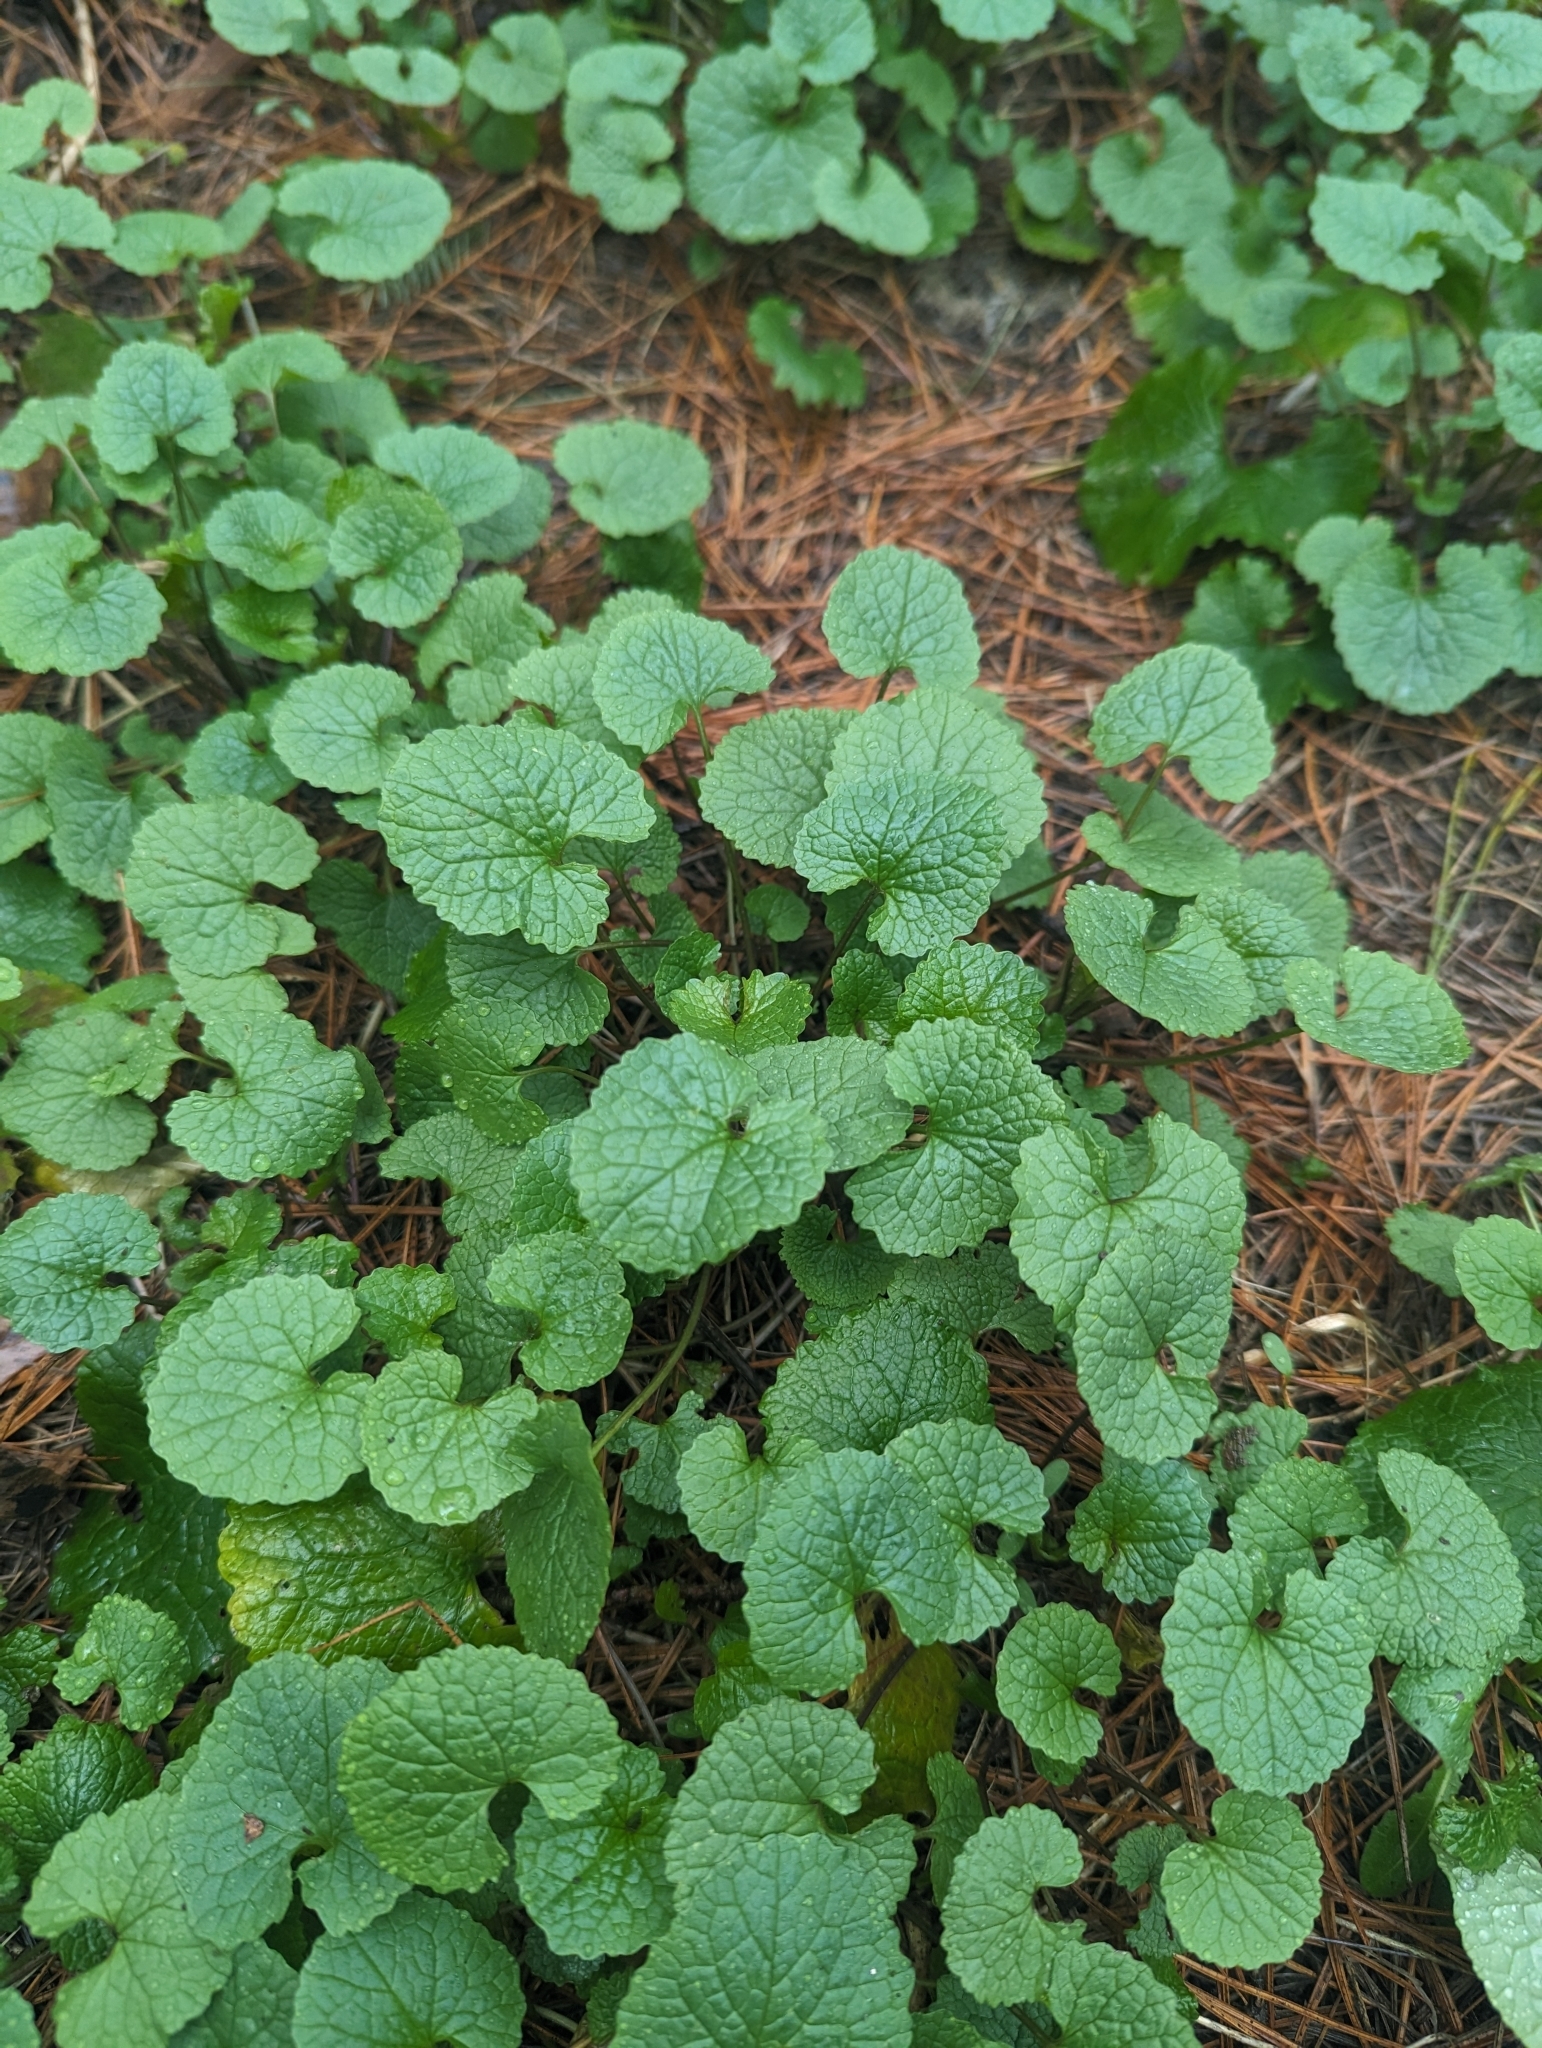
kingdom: Plantae
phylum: Tracheophyta
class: Magnoliopsida
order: Brassicales
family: Brassicaceae
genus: Alliaria
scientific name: Alliaria petiolata
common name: Garlic mustard
